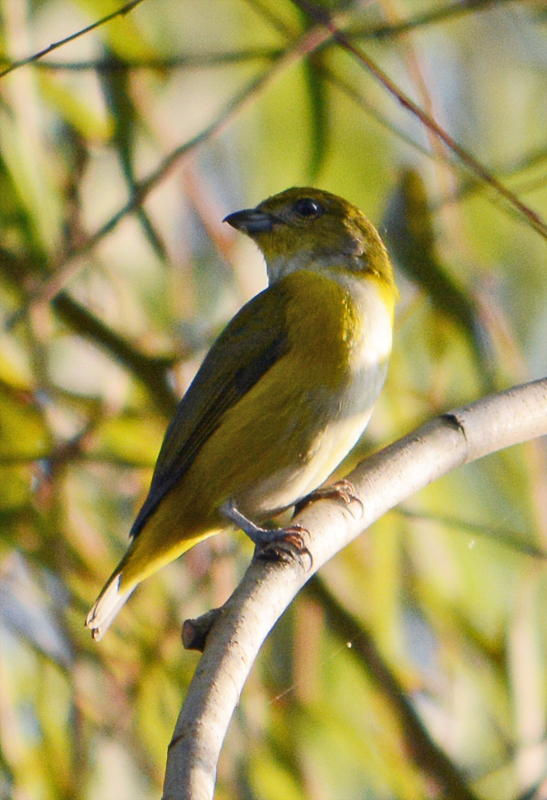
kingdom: Animalia
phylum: Chordata
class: Aves
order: Passeriformes
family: Fringillidae
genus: Euphonia
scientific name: Euphonia hirundinacea
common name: Yellow-throated euphonia
